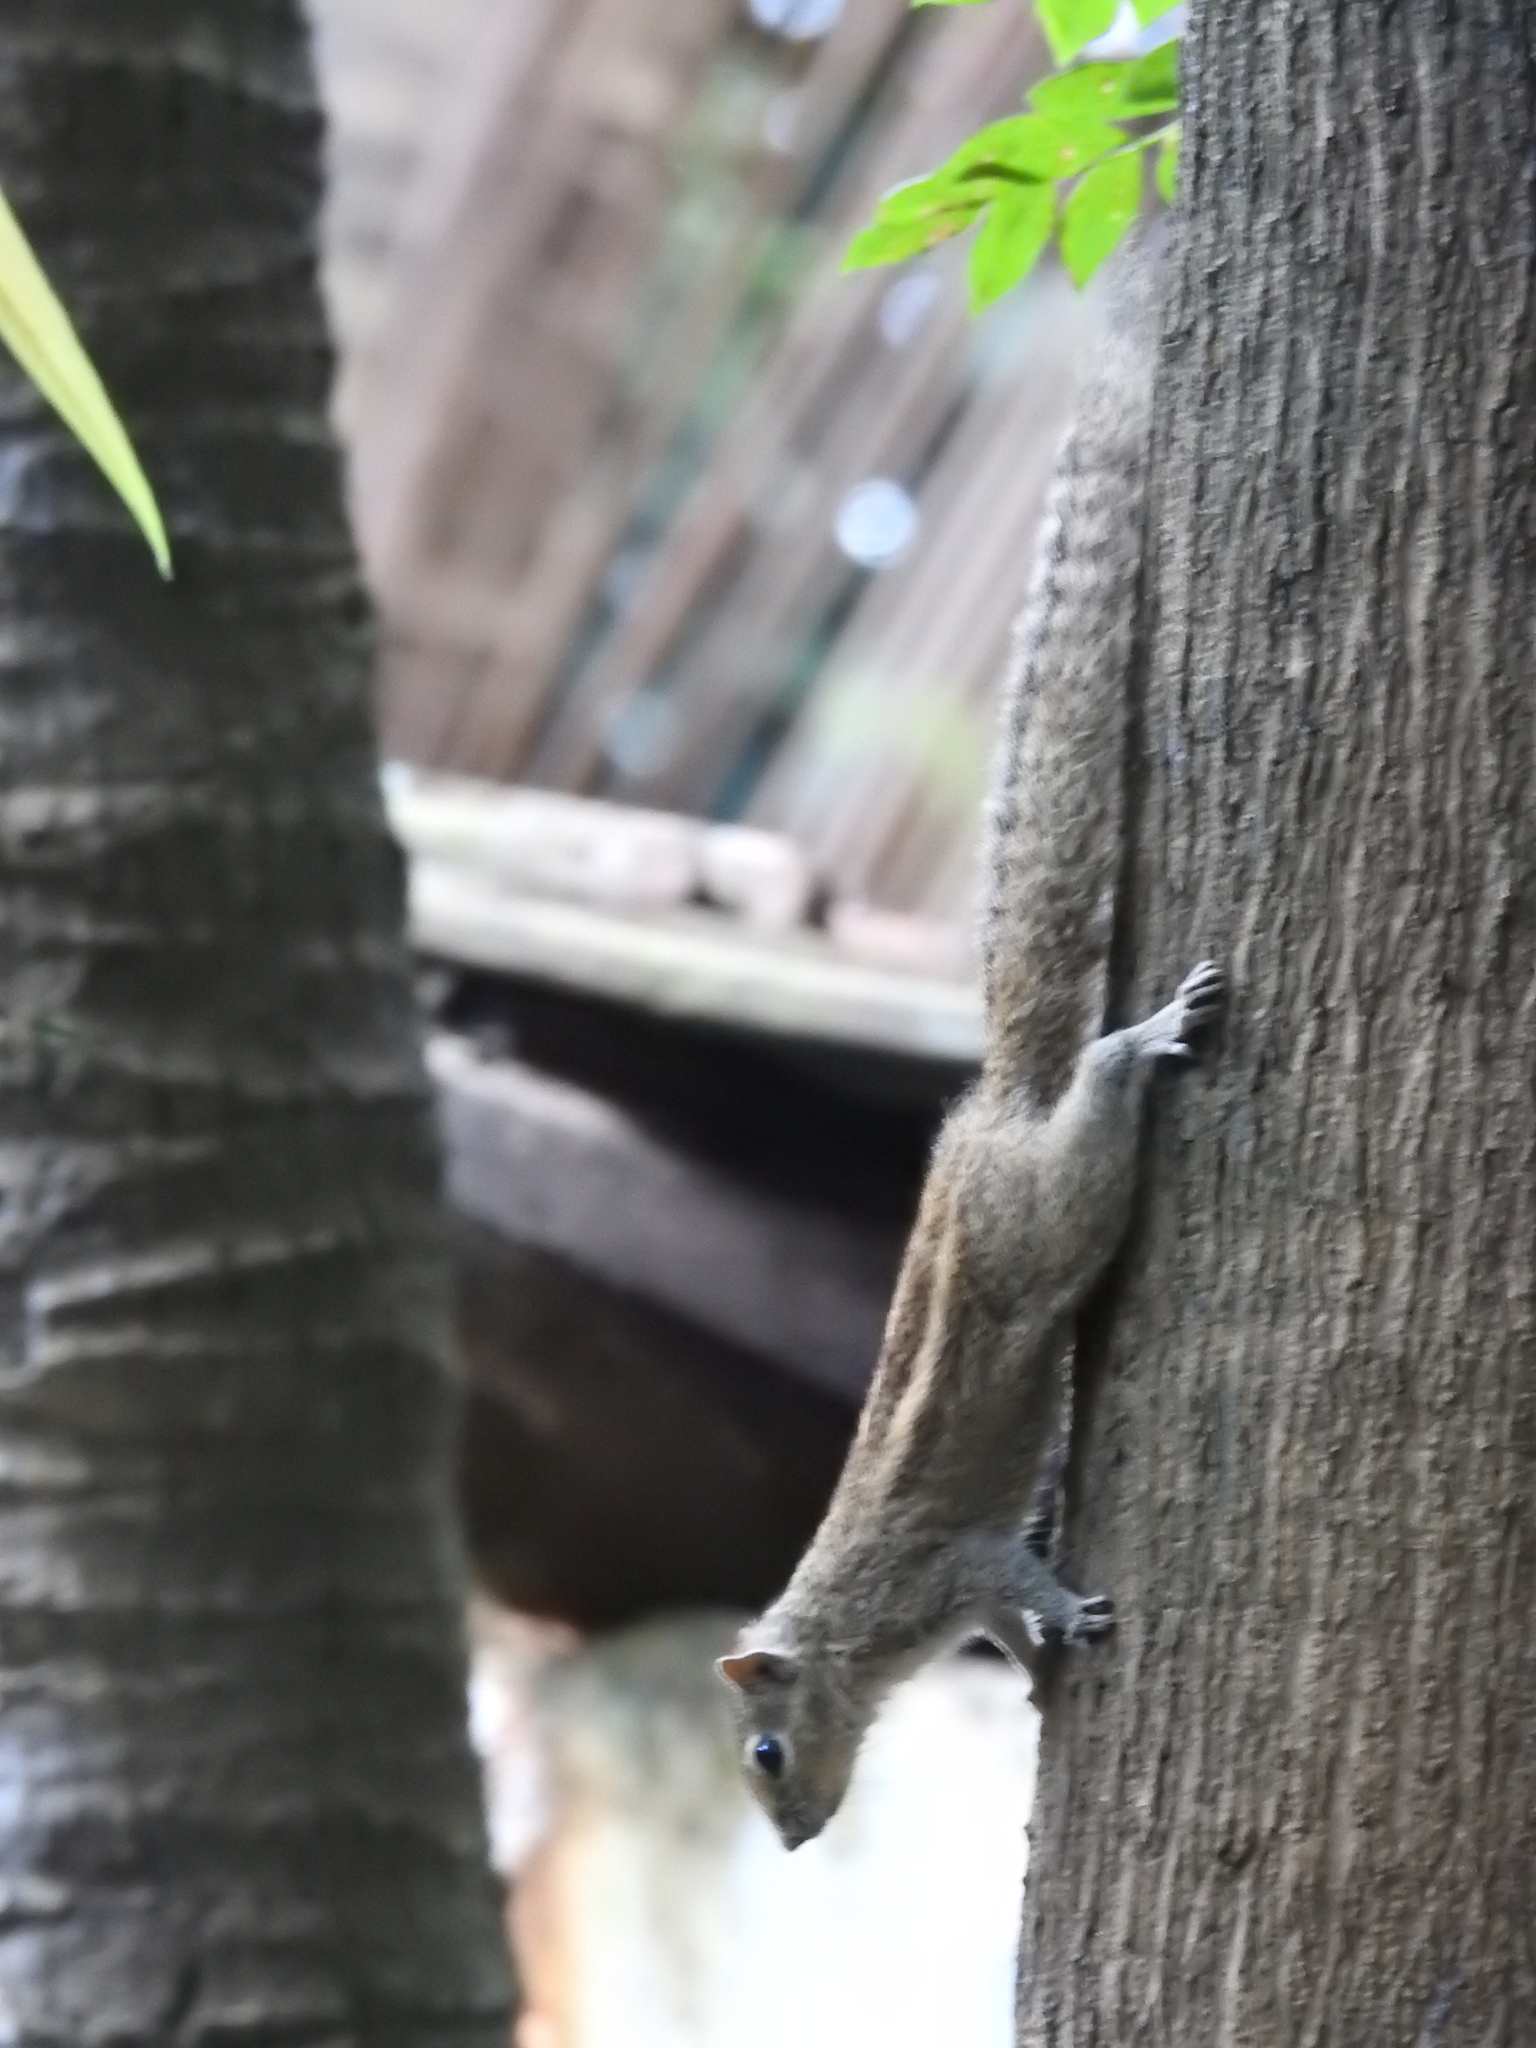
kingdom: Animalia
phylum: Chordata
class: Mammalia
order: Rodentia
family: Sciuridae
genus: Funambulus
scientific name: Funambulus palmarum
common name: Indian palm squirrel
